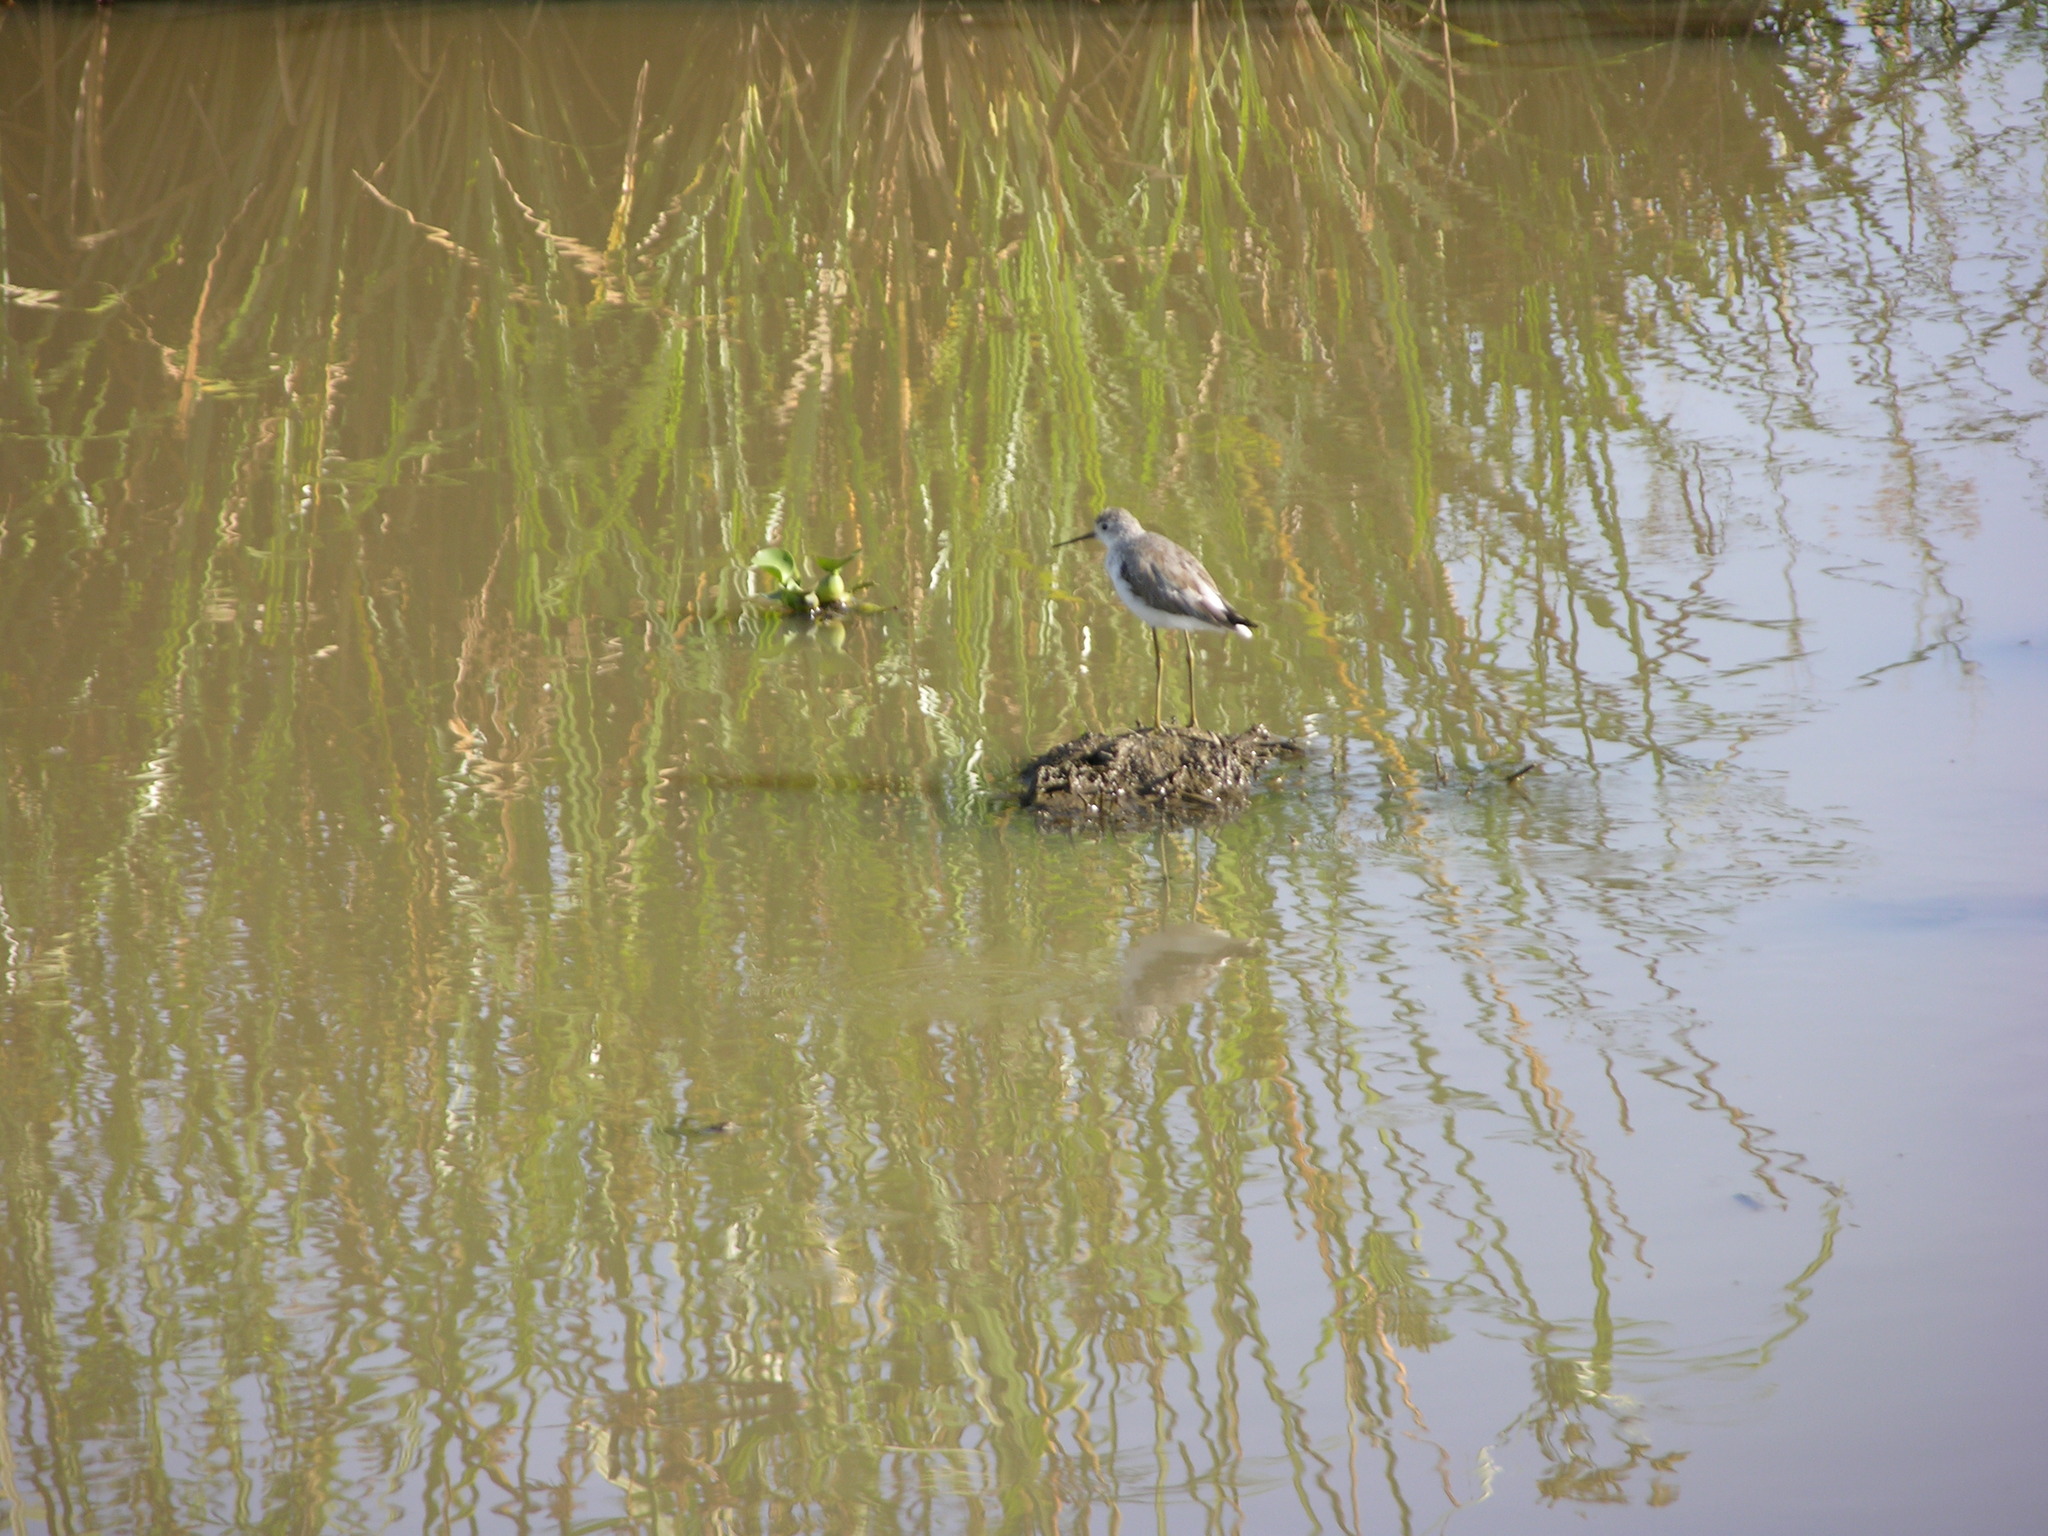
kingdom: Animalia
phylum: Chordata
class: Aves
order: Charadriiformes
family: Scolopacidae
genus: Tringa
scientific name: Tringa stagnatilis
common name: Marsh sandpiper
